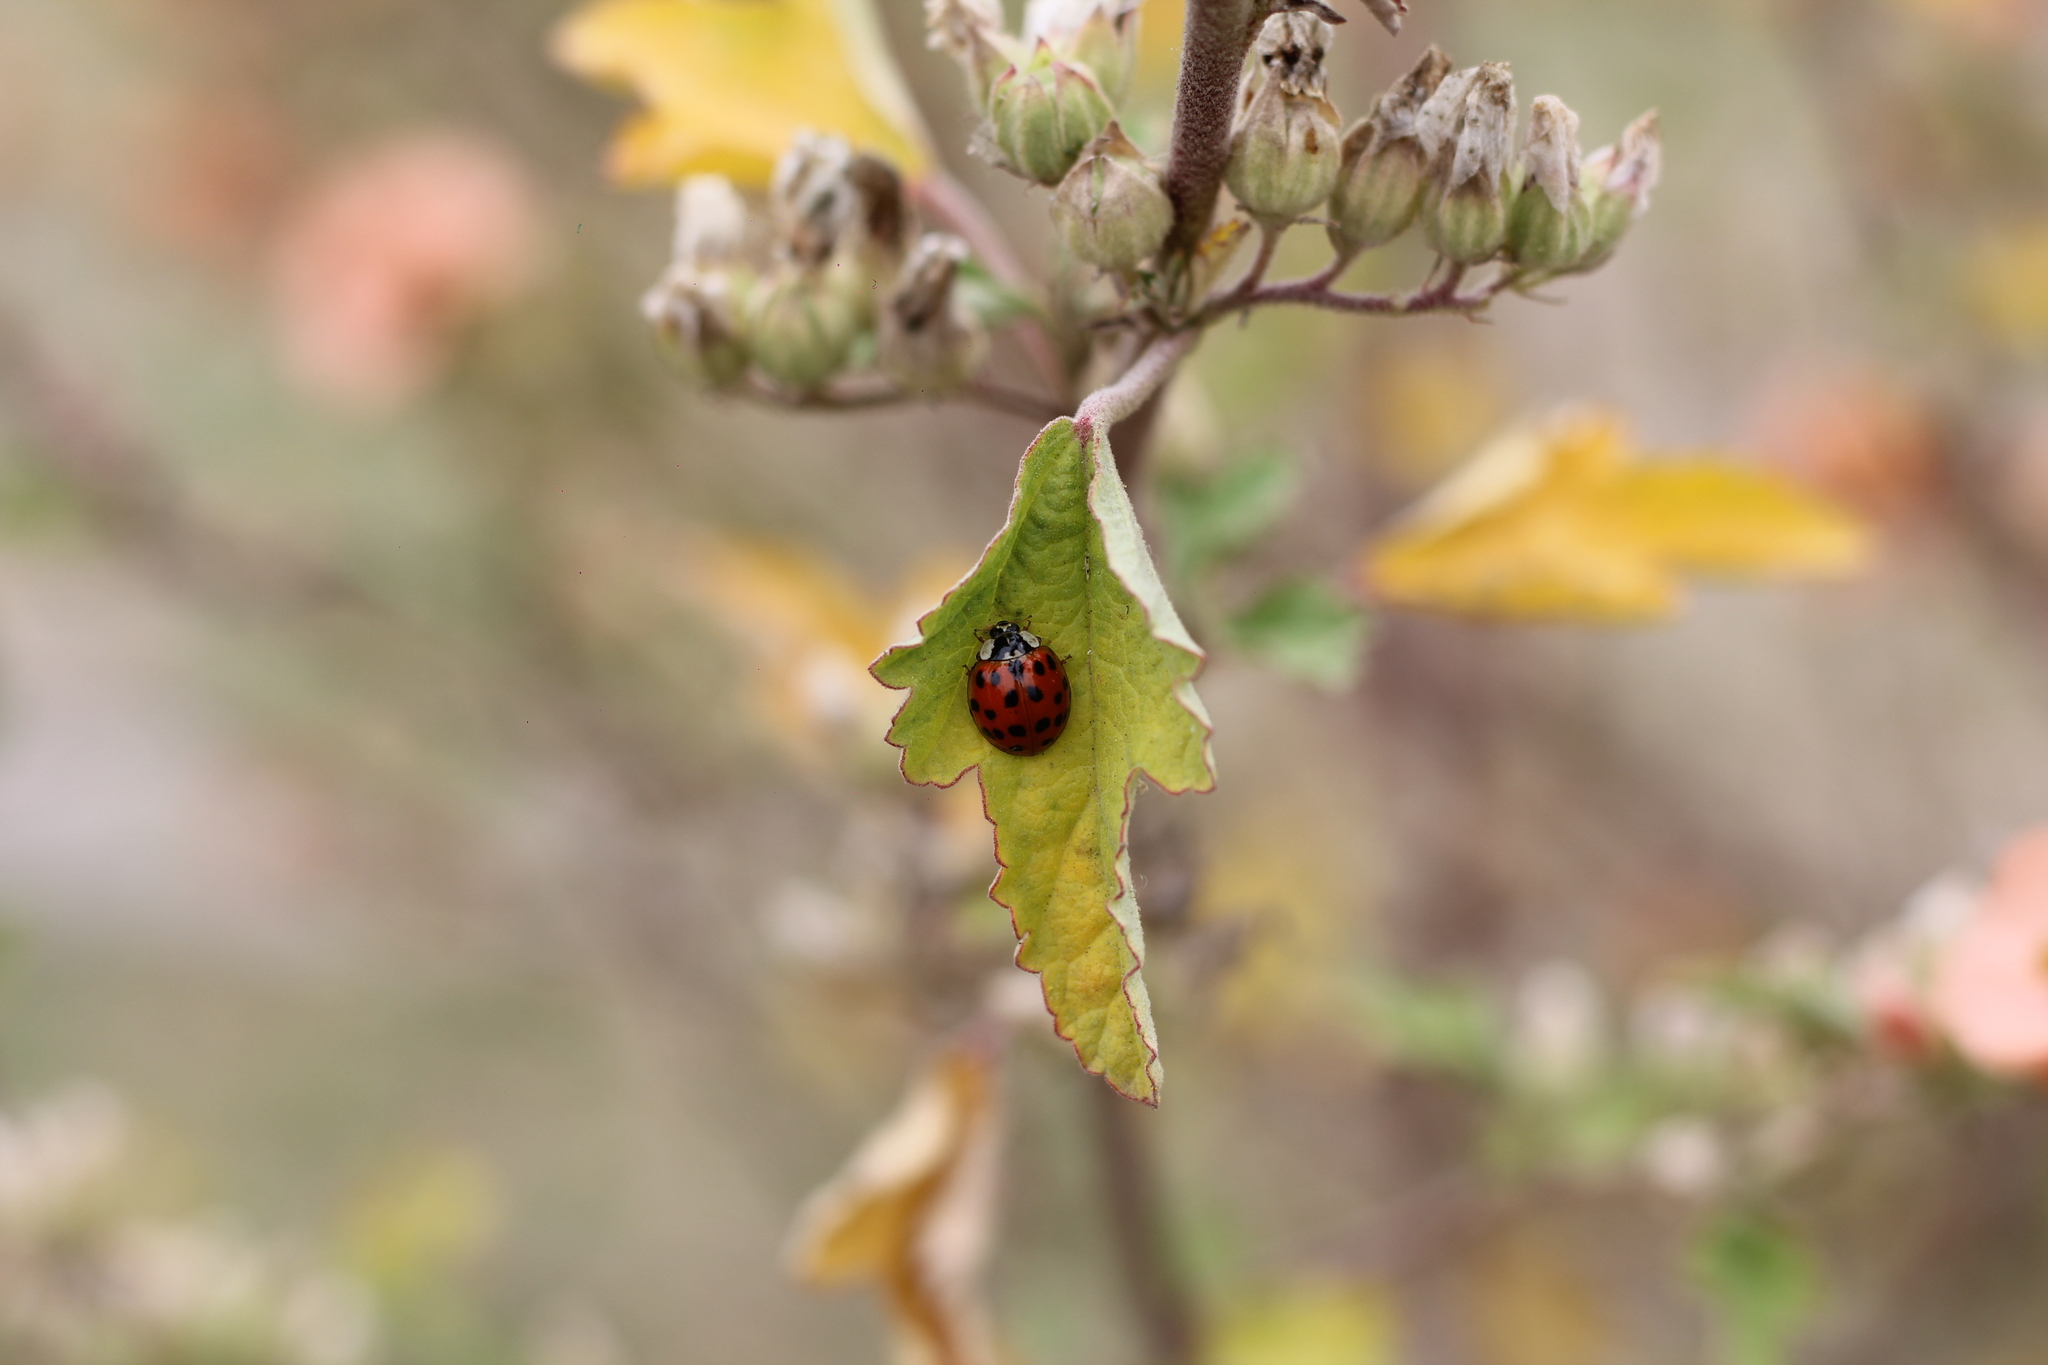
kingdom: Animalia
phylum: Arthropoda
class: Insecta
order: Coleoptera
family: Coccinellidae
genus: Harmonia
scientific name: Harmonia axyridis
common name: Harlequin ladybird
